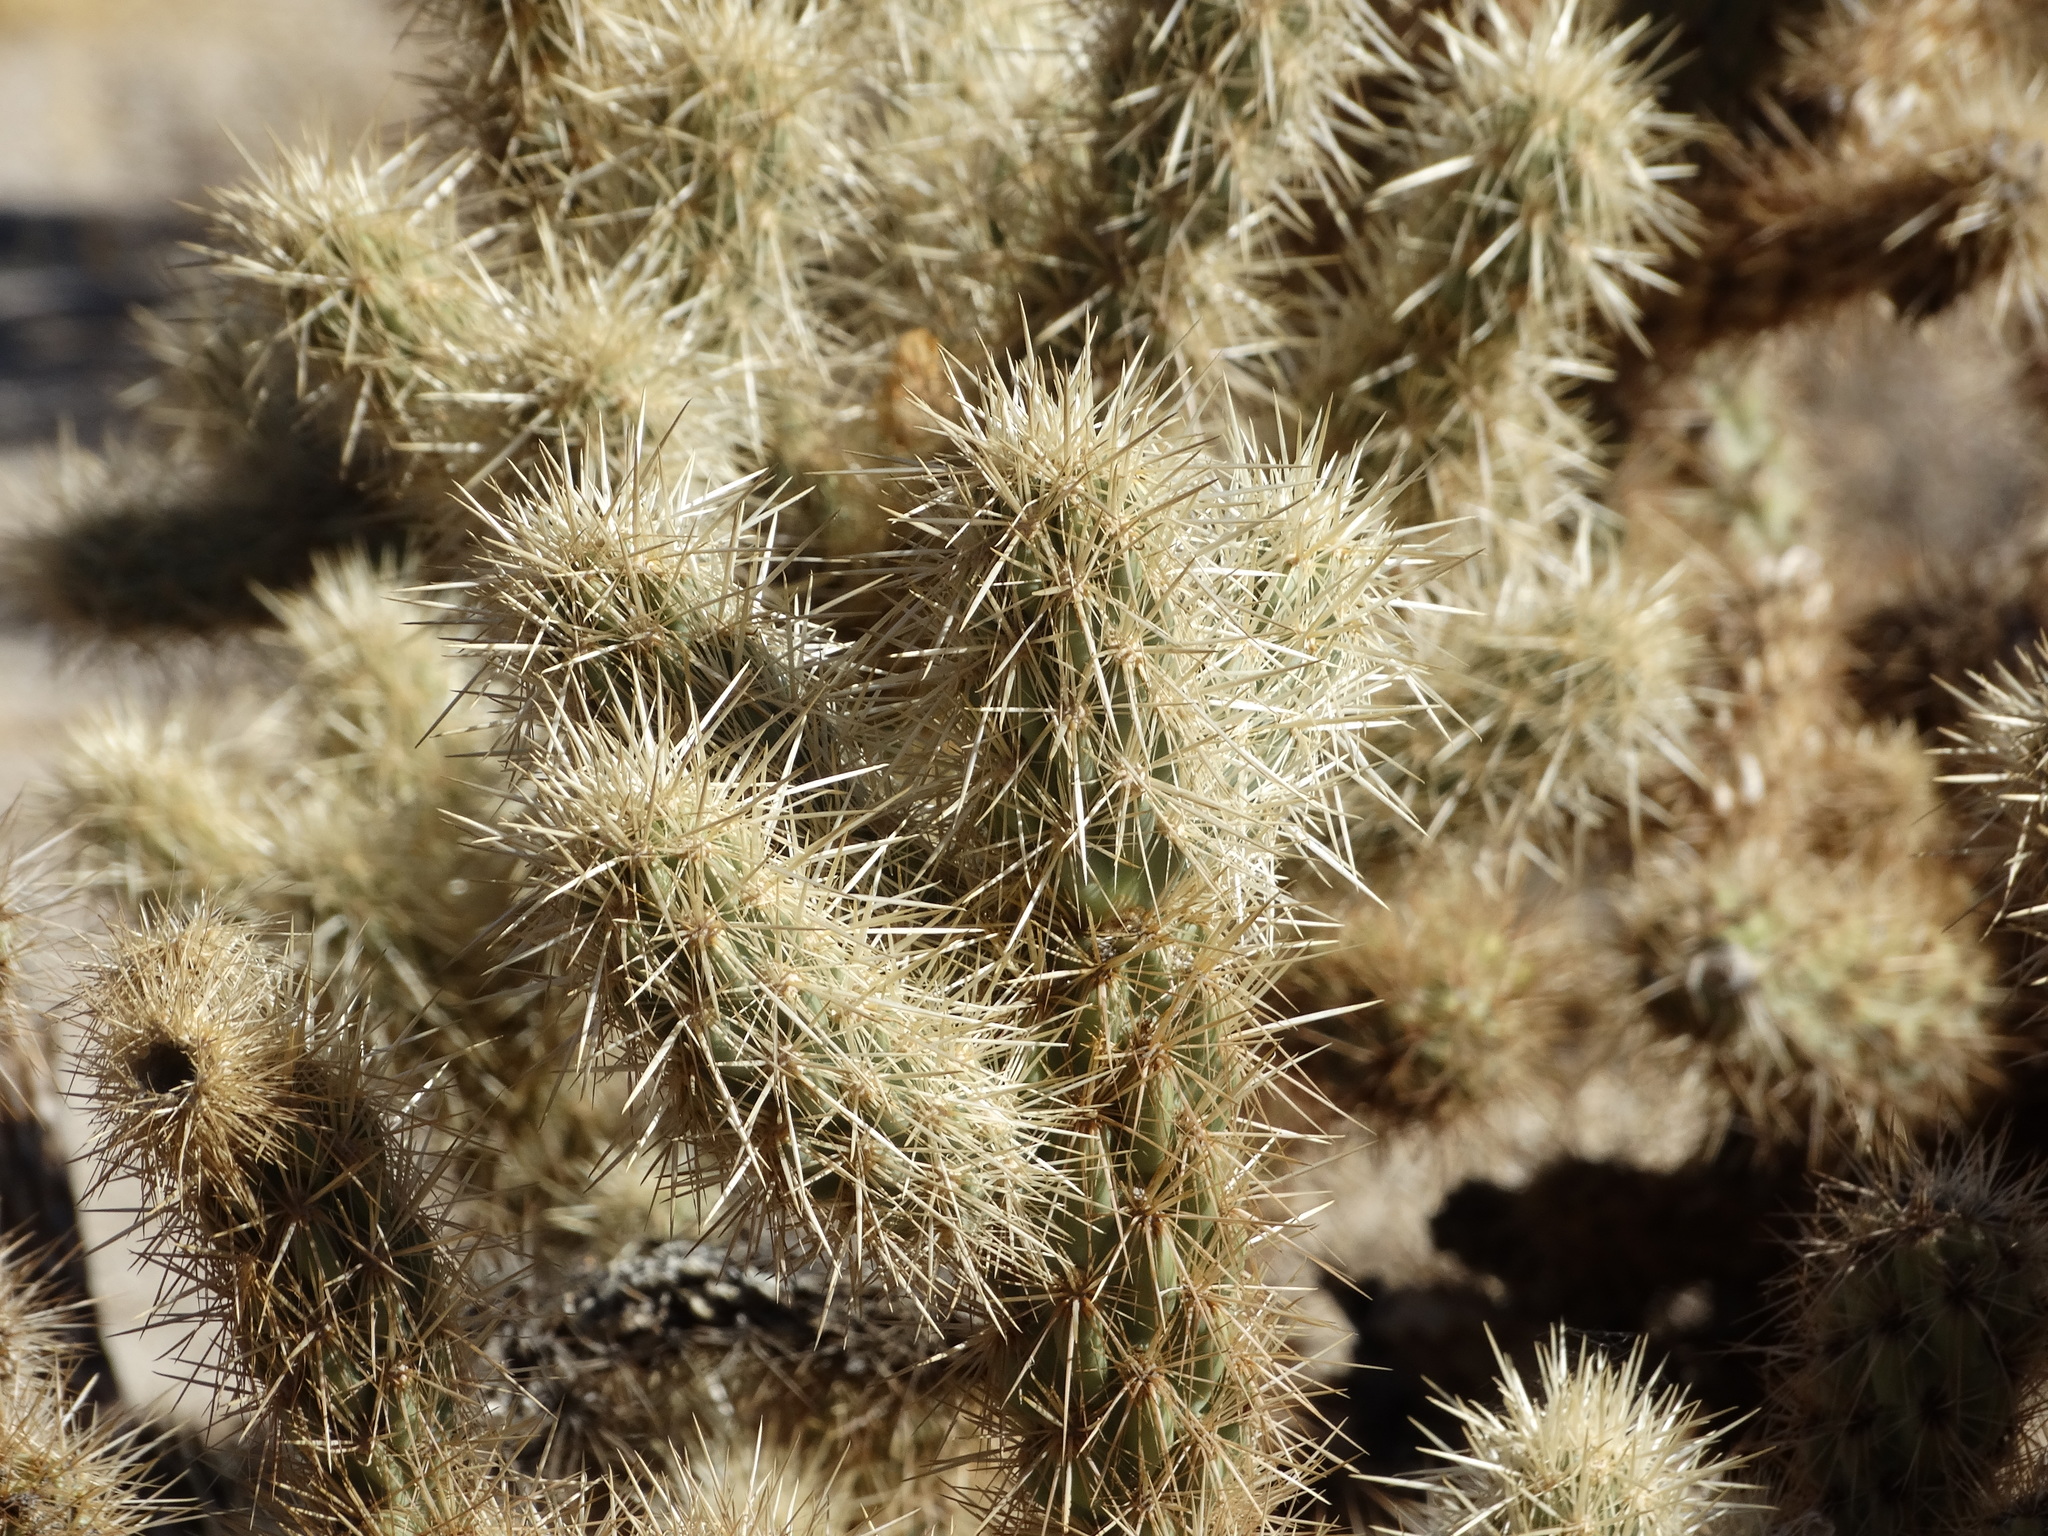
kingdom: Plantae
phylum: Tracheophyta
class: Magnoliopsida
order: Caryophyllales
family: Cactaceae
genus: Cylindropuntia
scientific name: Cylindropuntia wolfii
